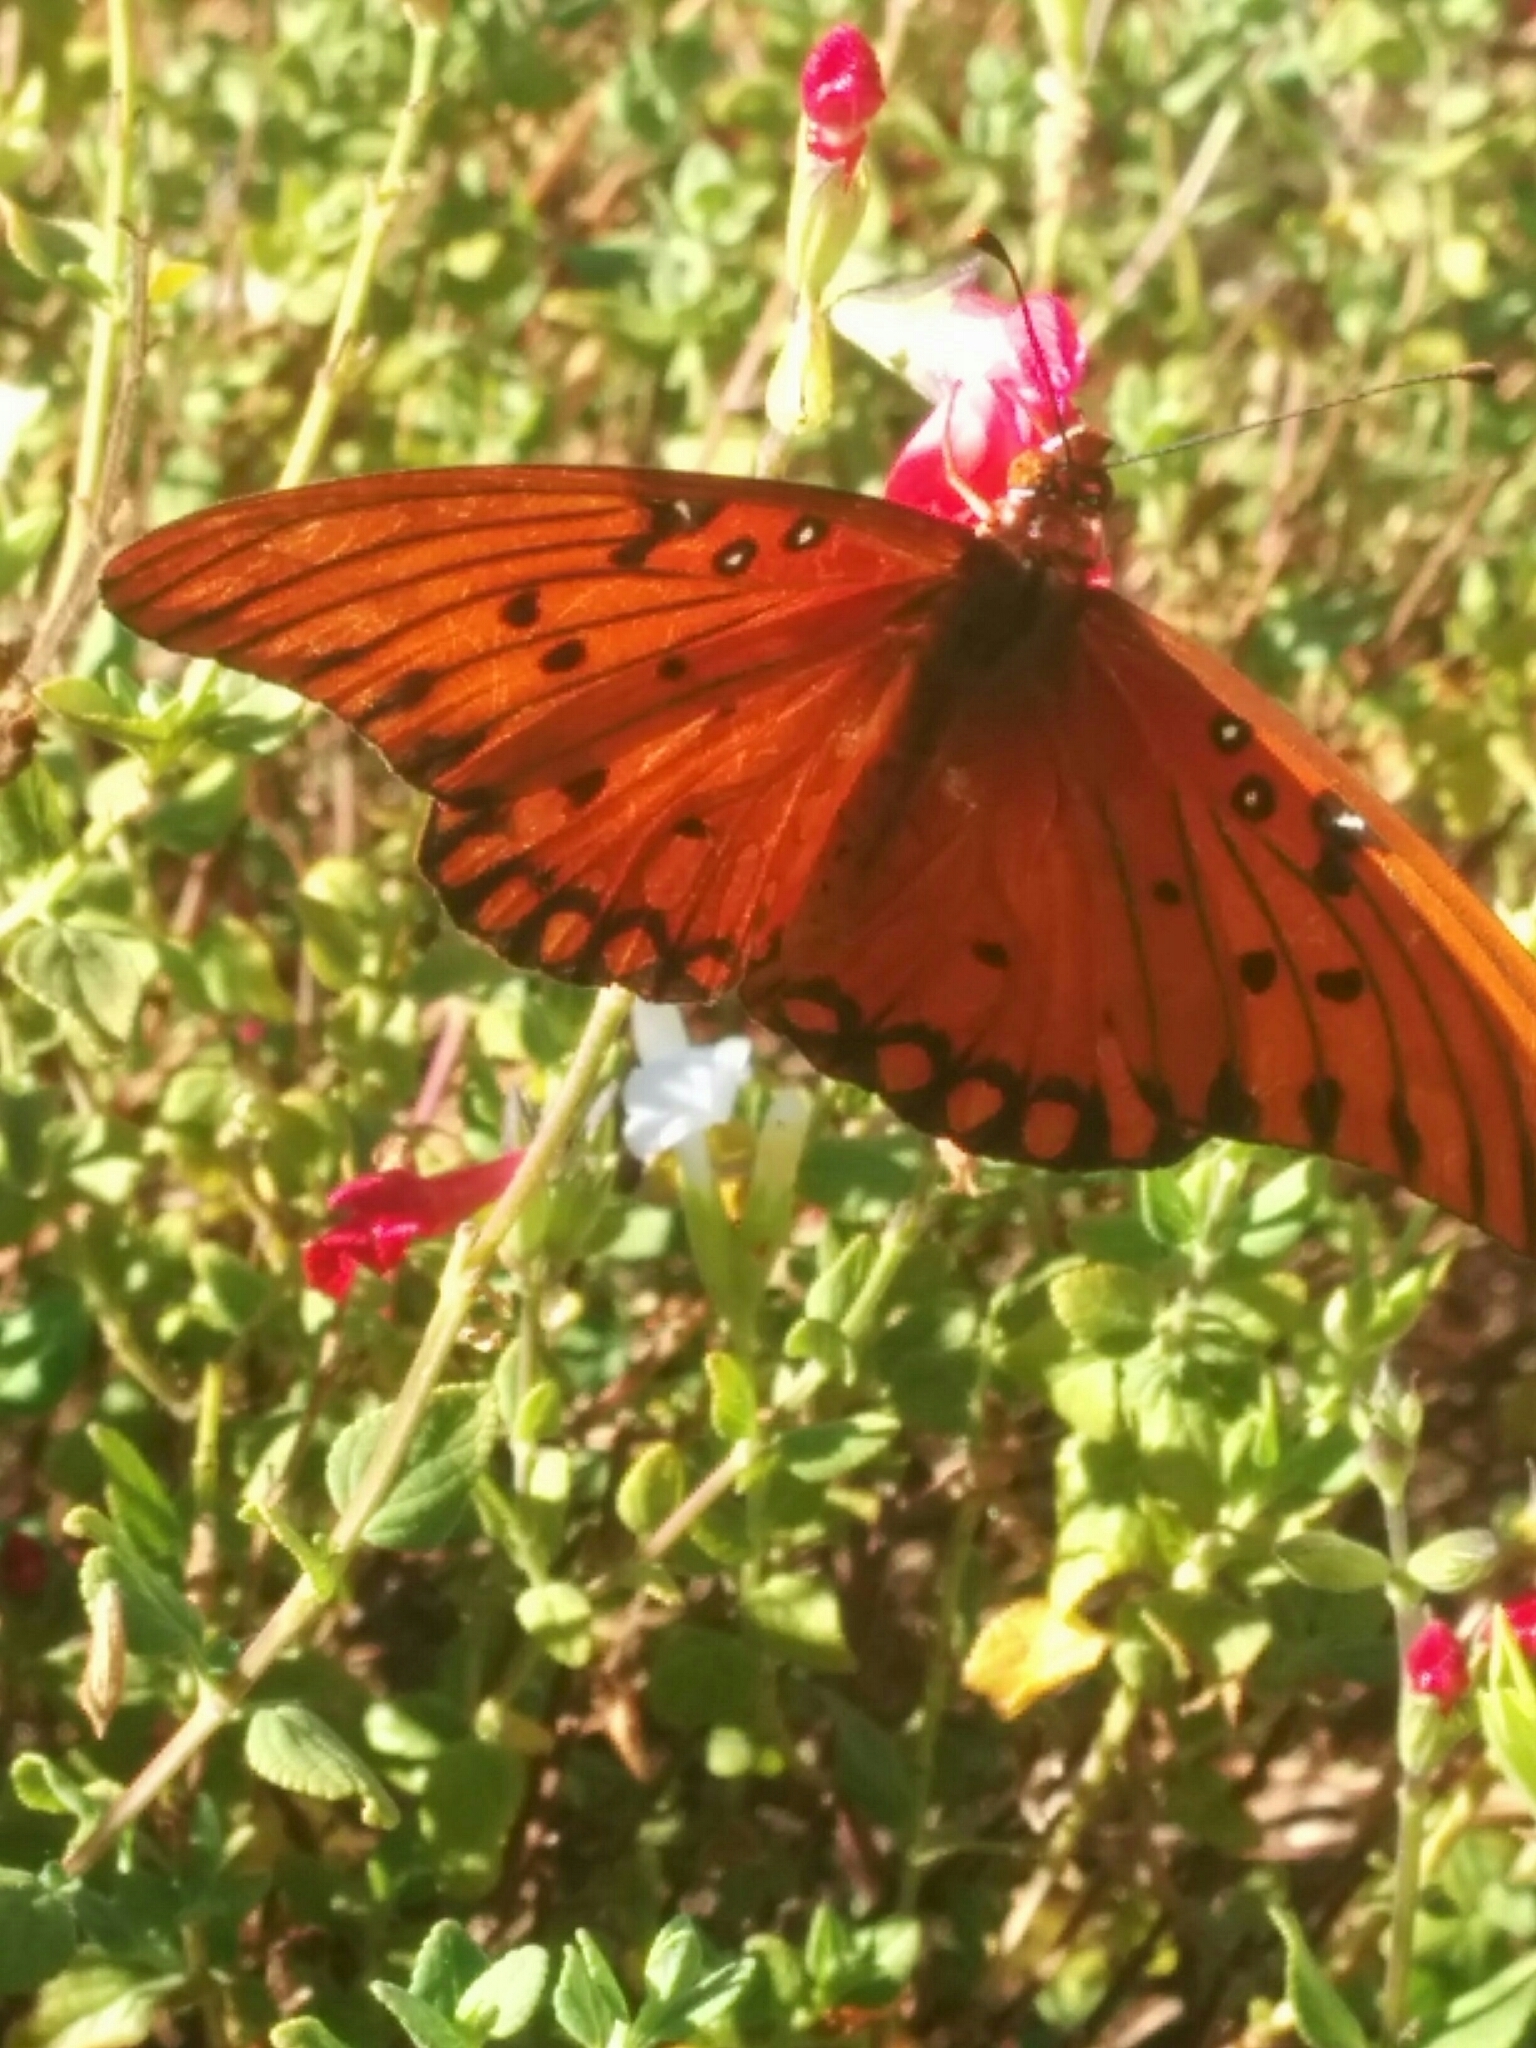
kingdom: Animalia
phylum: Arthropoda
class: Insecta
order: Lepidoptera
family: Nymphalidae
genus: Dione
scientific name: Dione vanillae
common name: Gulf fritillary
